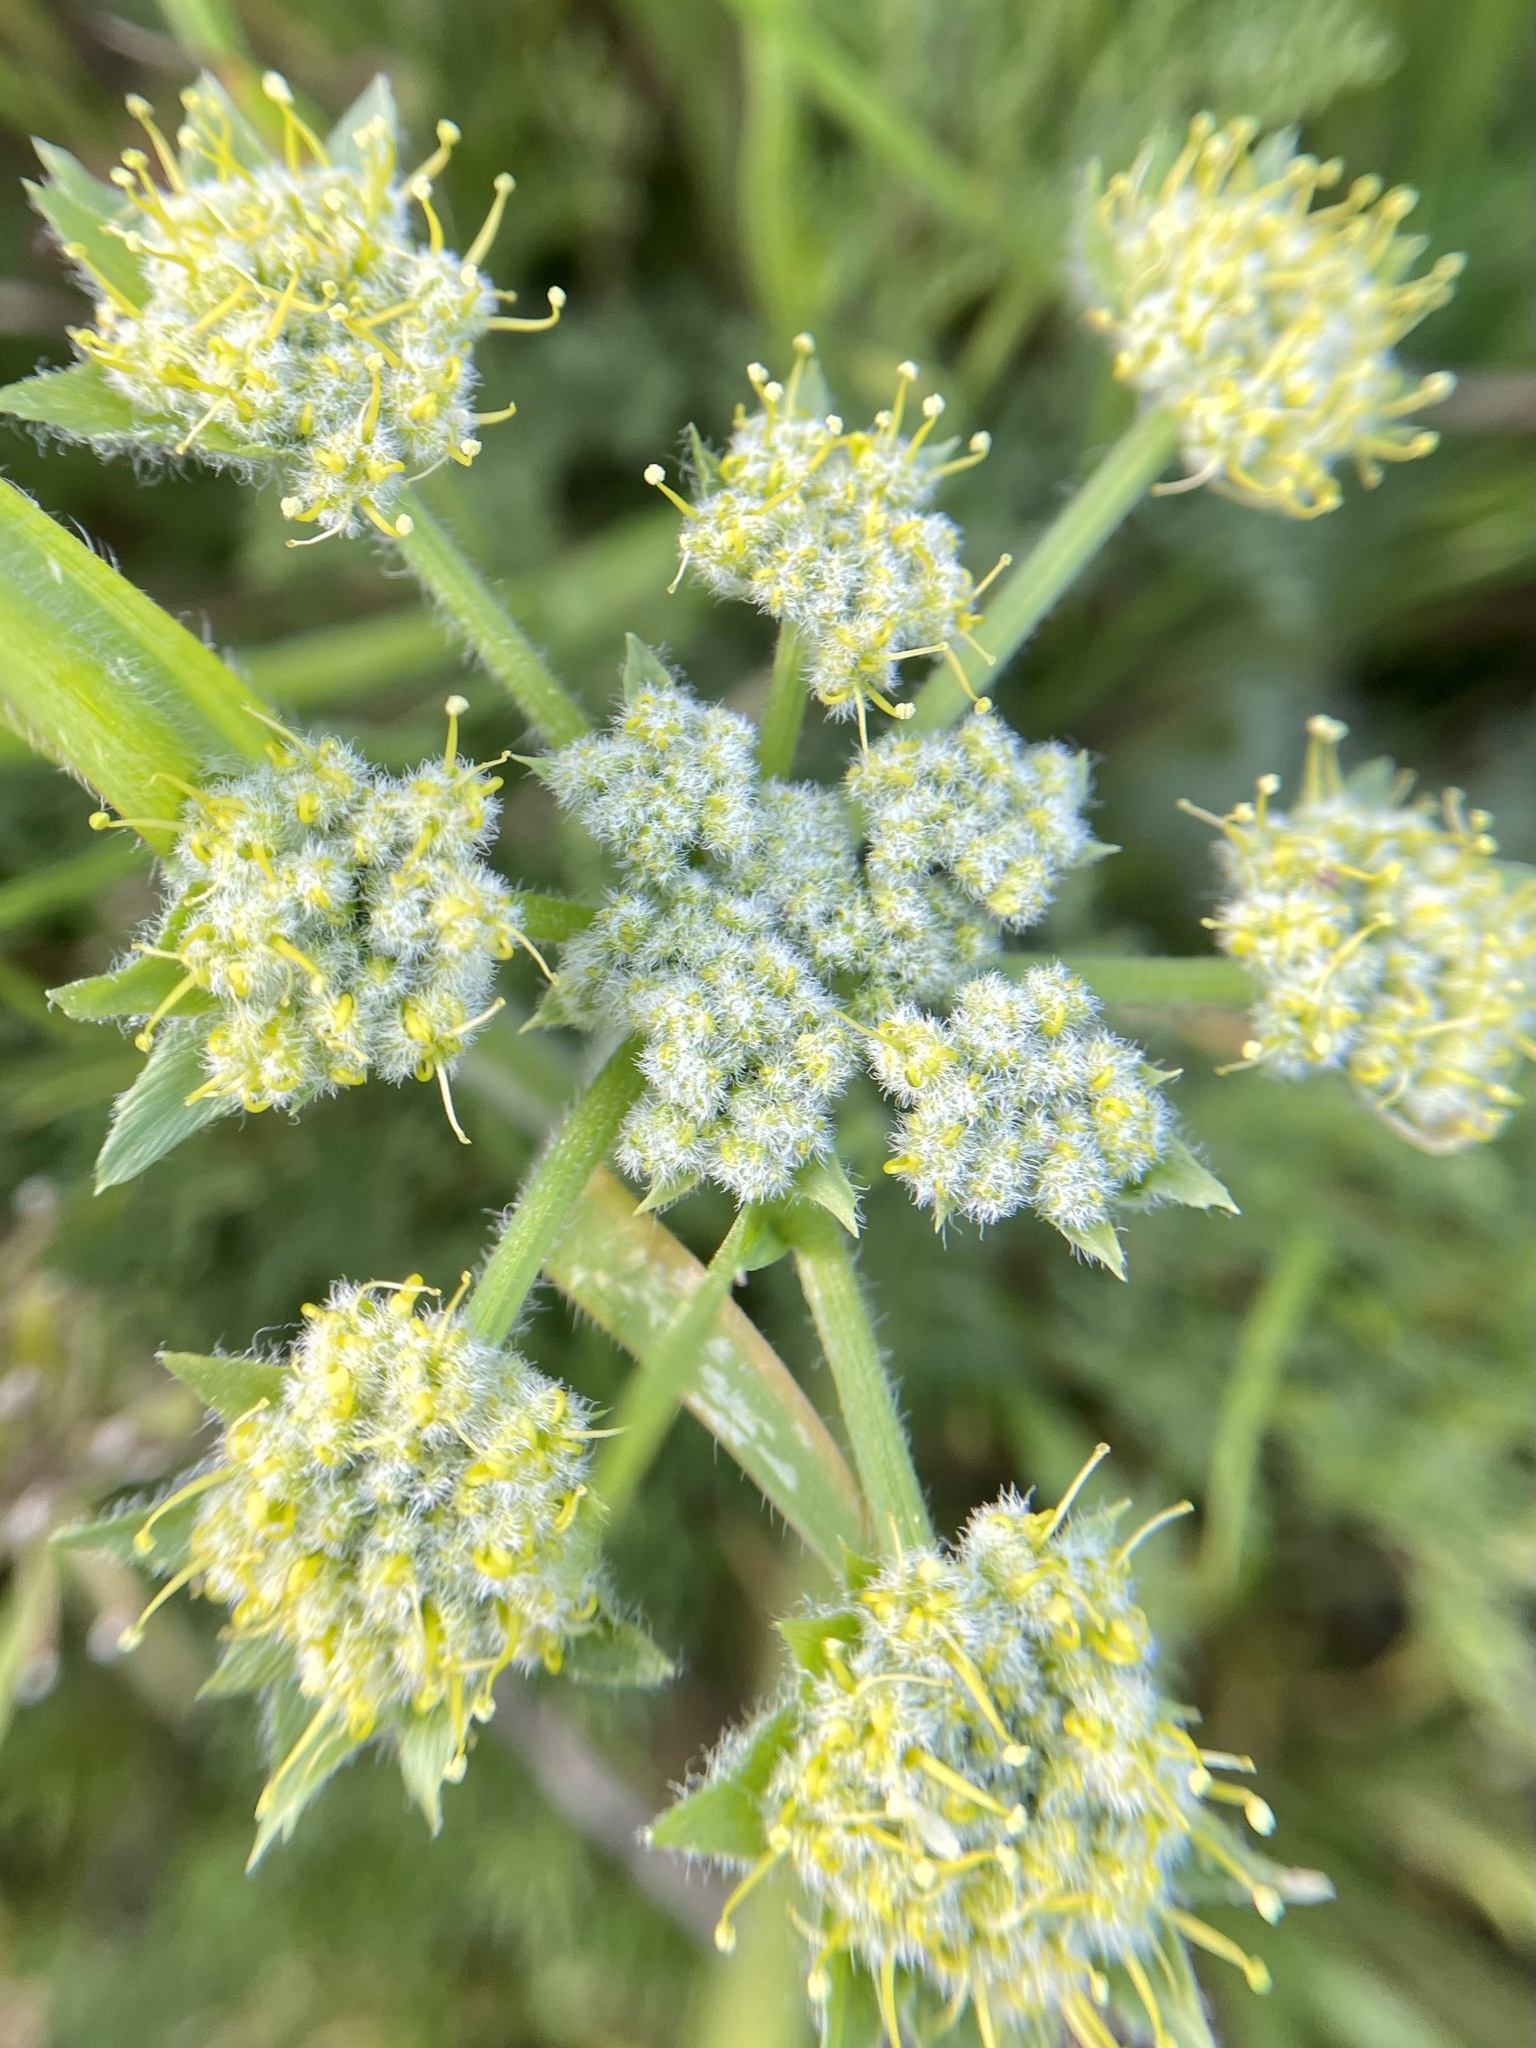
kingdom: Plantae
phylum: Tracheophyta
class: Magnoliopsida
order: Apiales
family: Apiaceae
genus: Lomatium
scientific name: Lomatium dasycarpum
